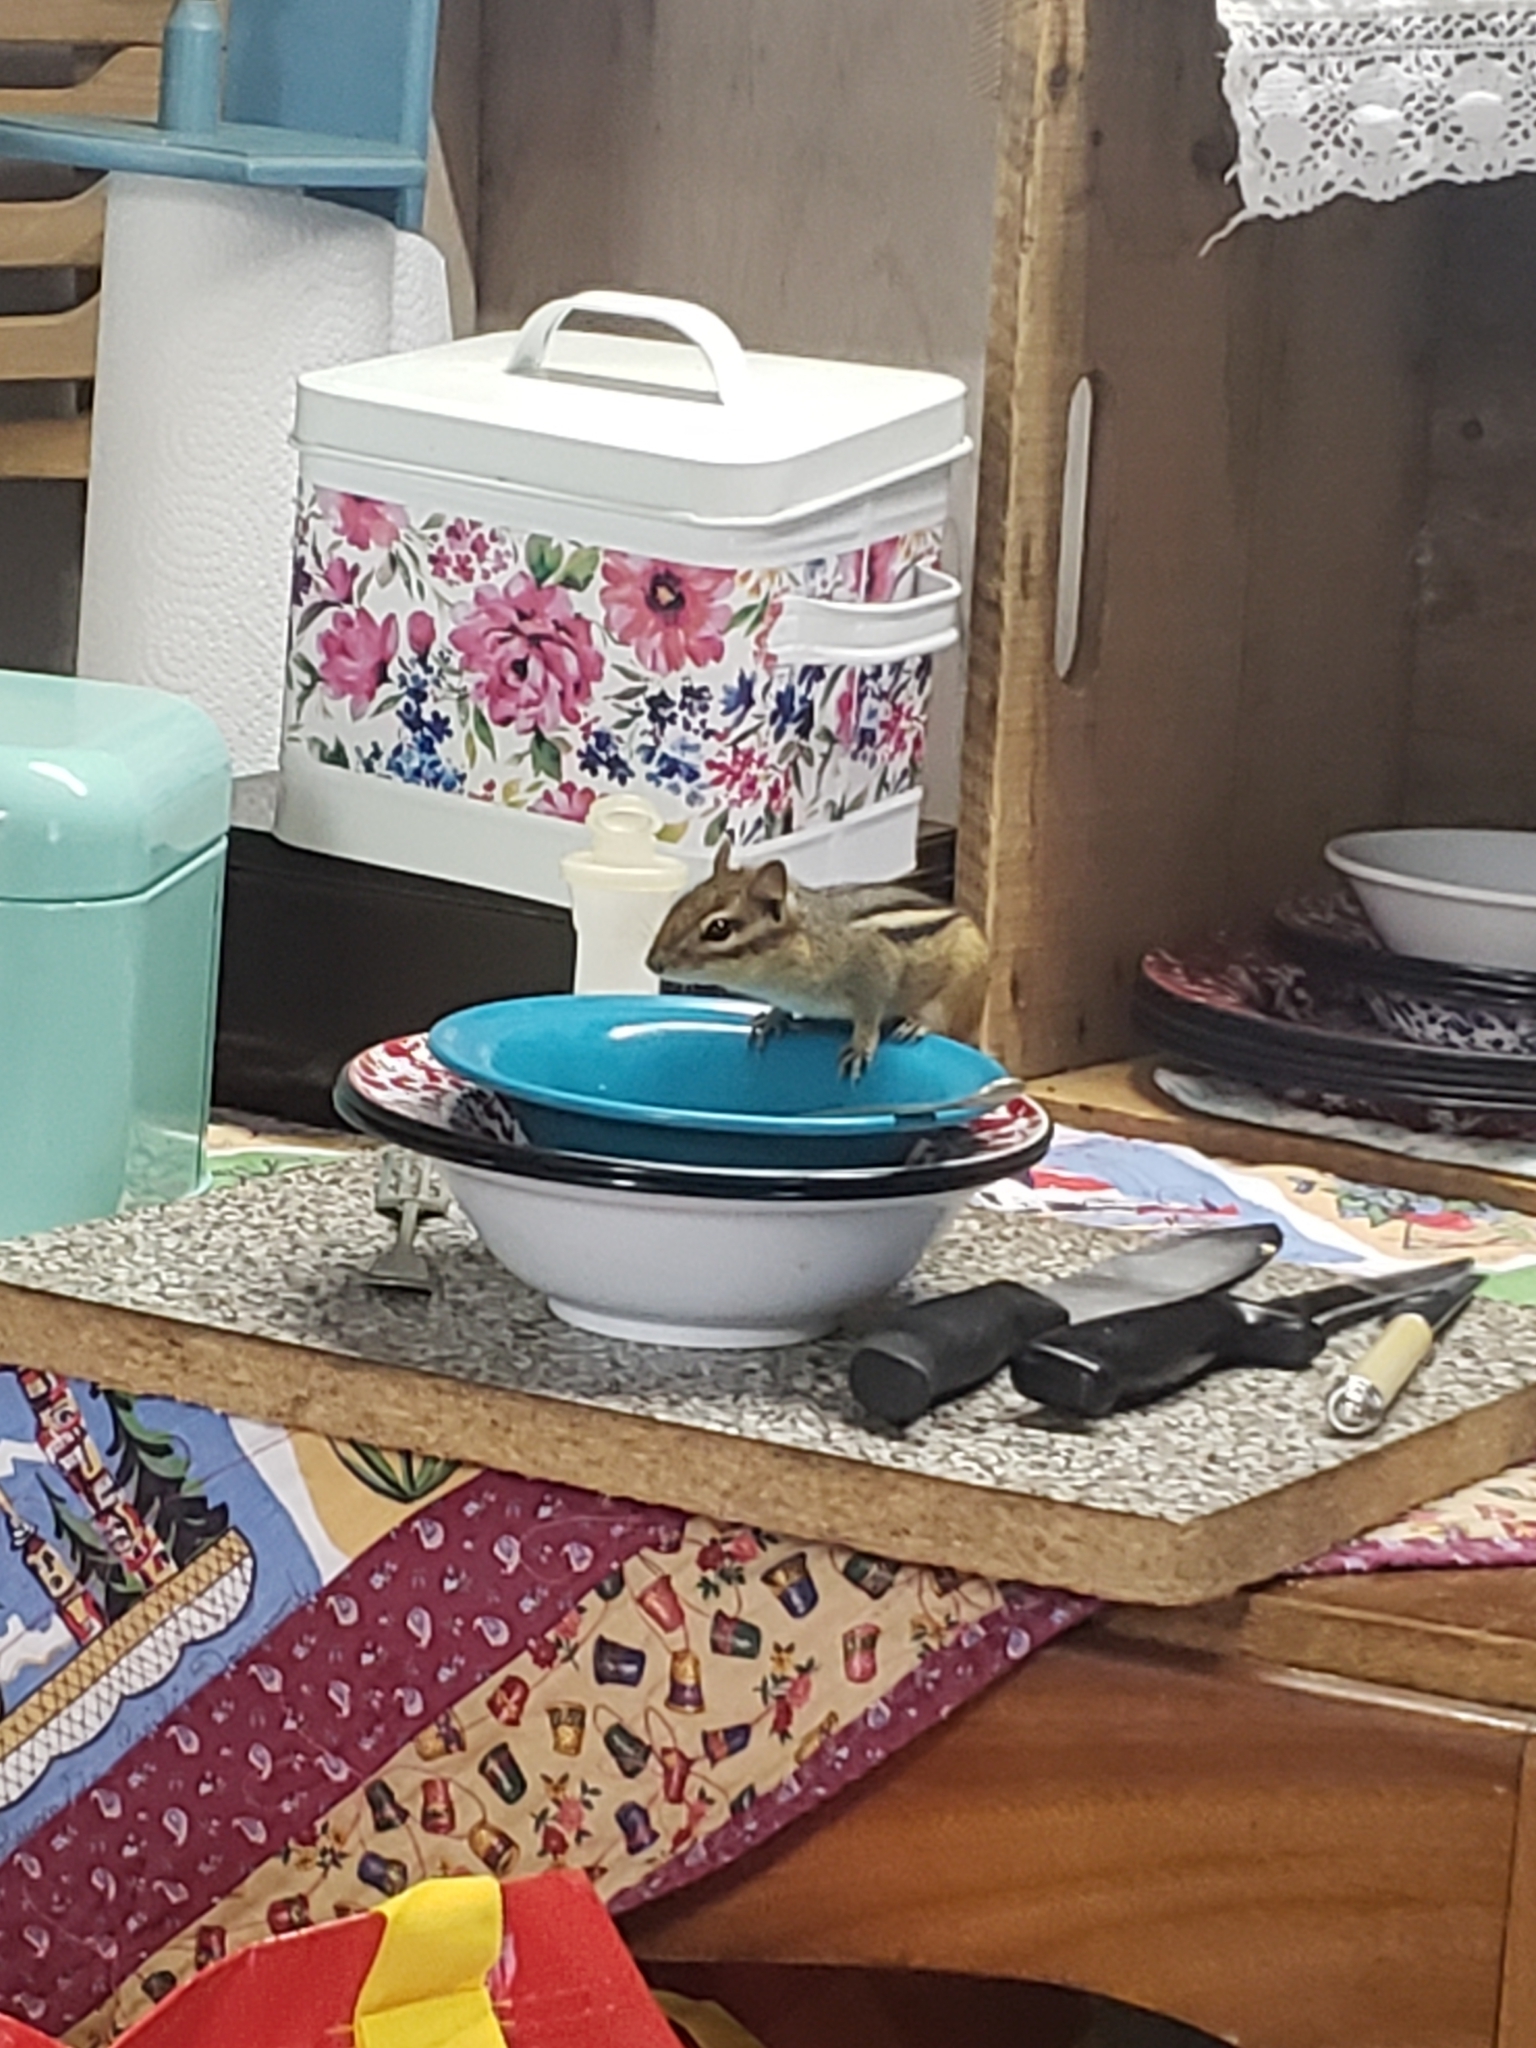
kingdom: Animalia
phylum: Chordata
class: Mammalia
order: Rodentia
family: Sciuridae
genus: Tamias
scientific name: Tamias striatus
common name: Eastern chipmunk
